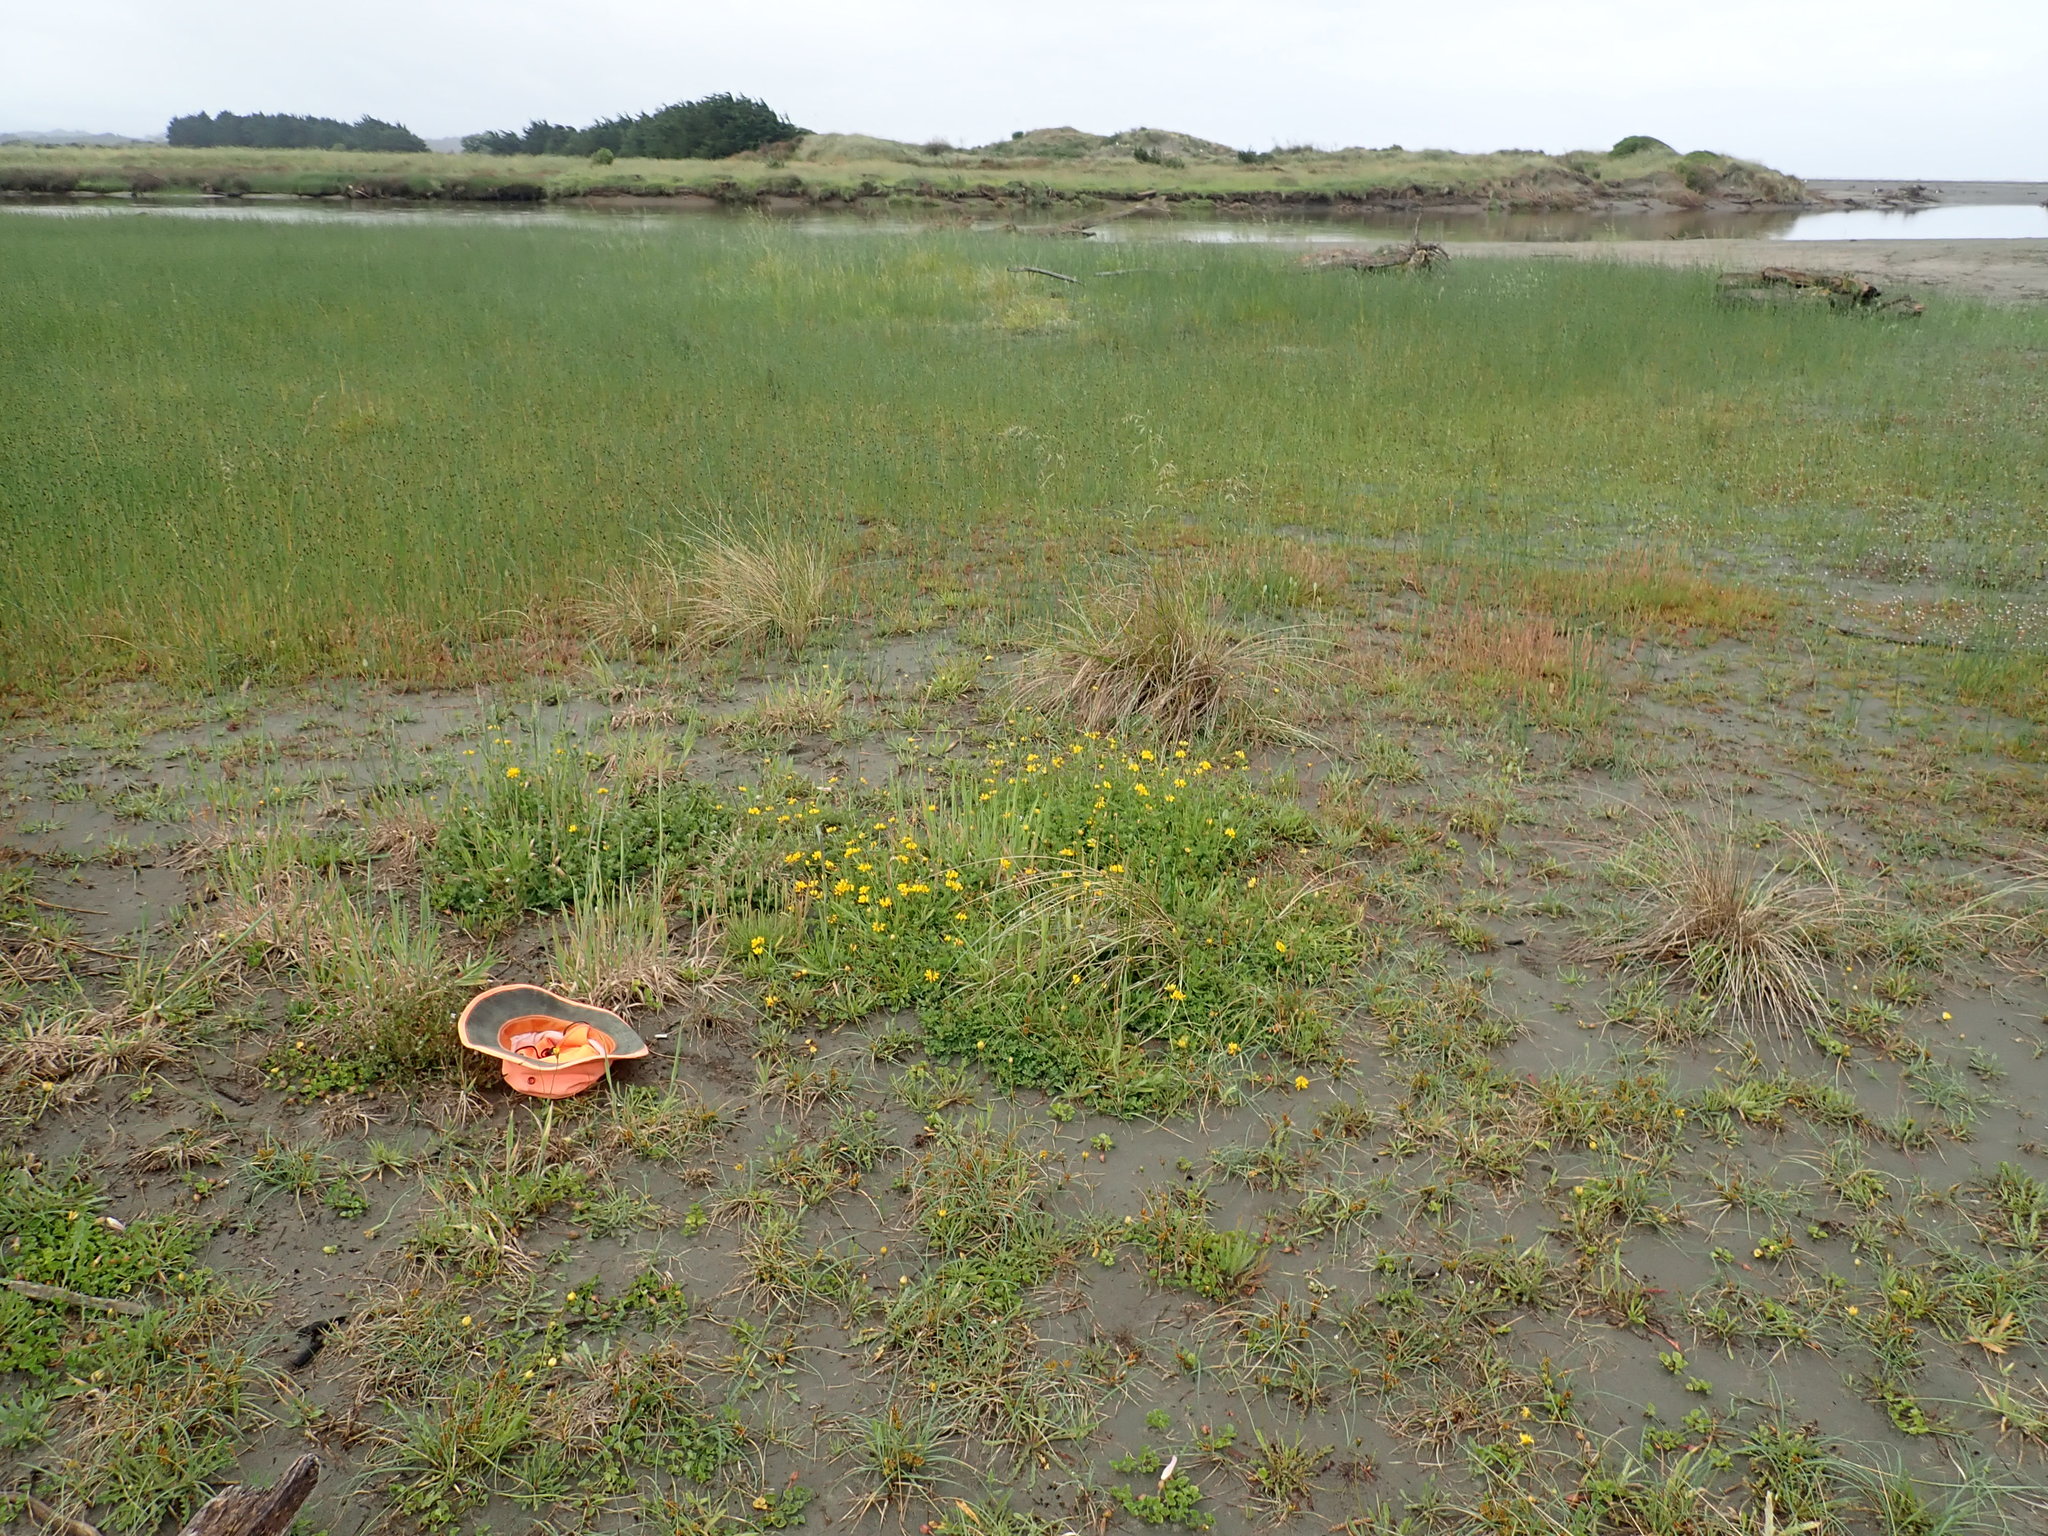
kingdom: Plantae
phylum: Tracheophyta
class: Magnoliopsida
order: Caryophyllales
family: Caryophyllaceae
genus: Silene
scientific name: Silene gallica
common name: Small-flowered catchfly
